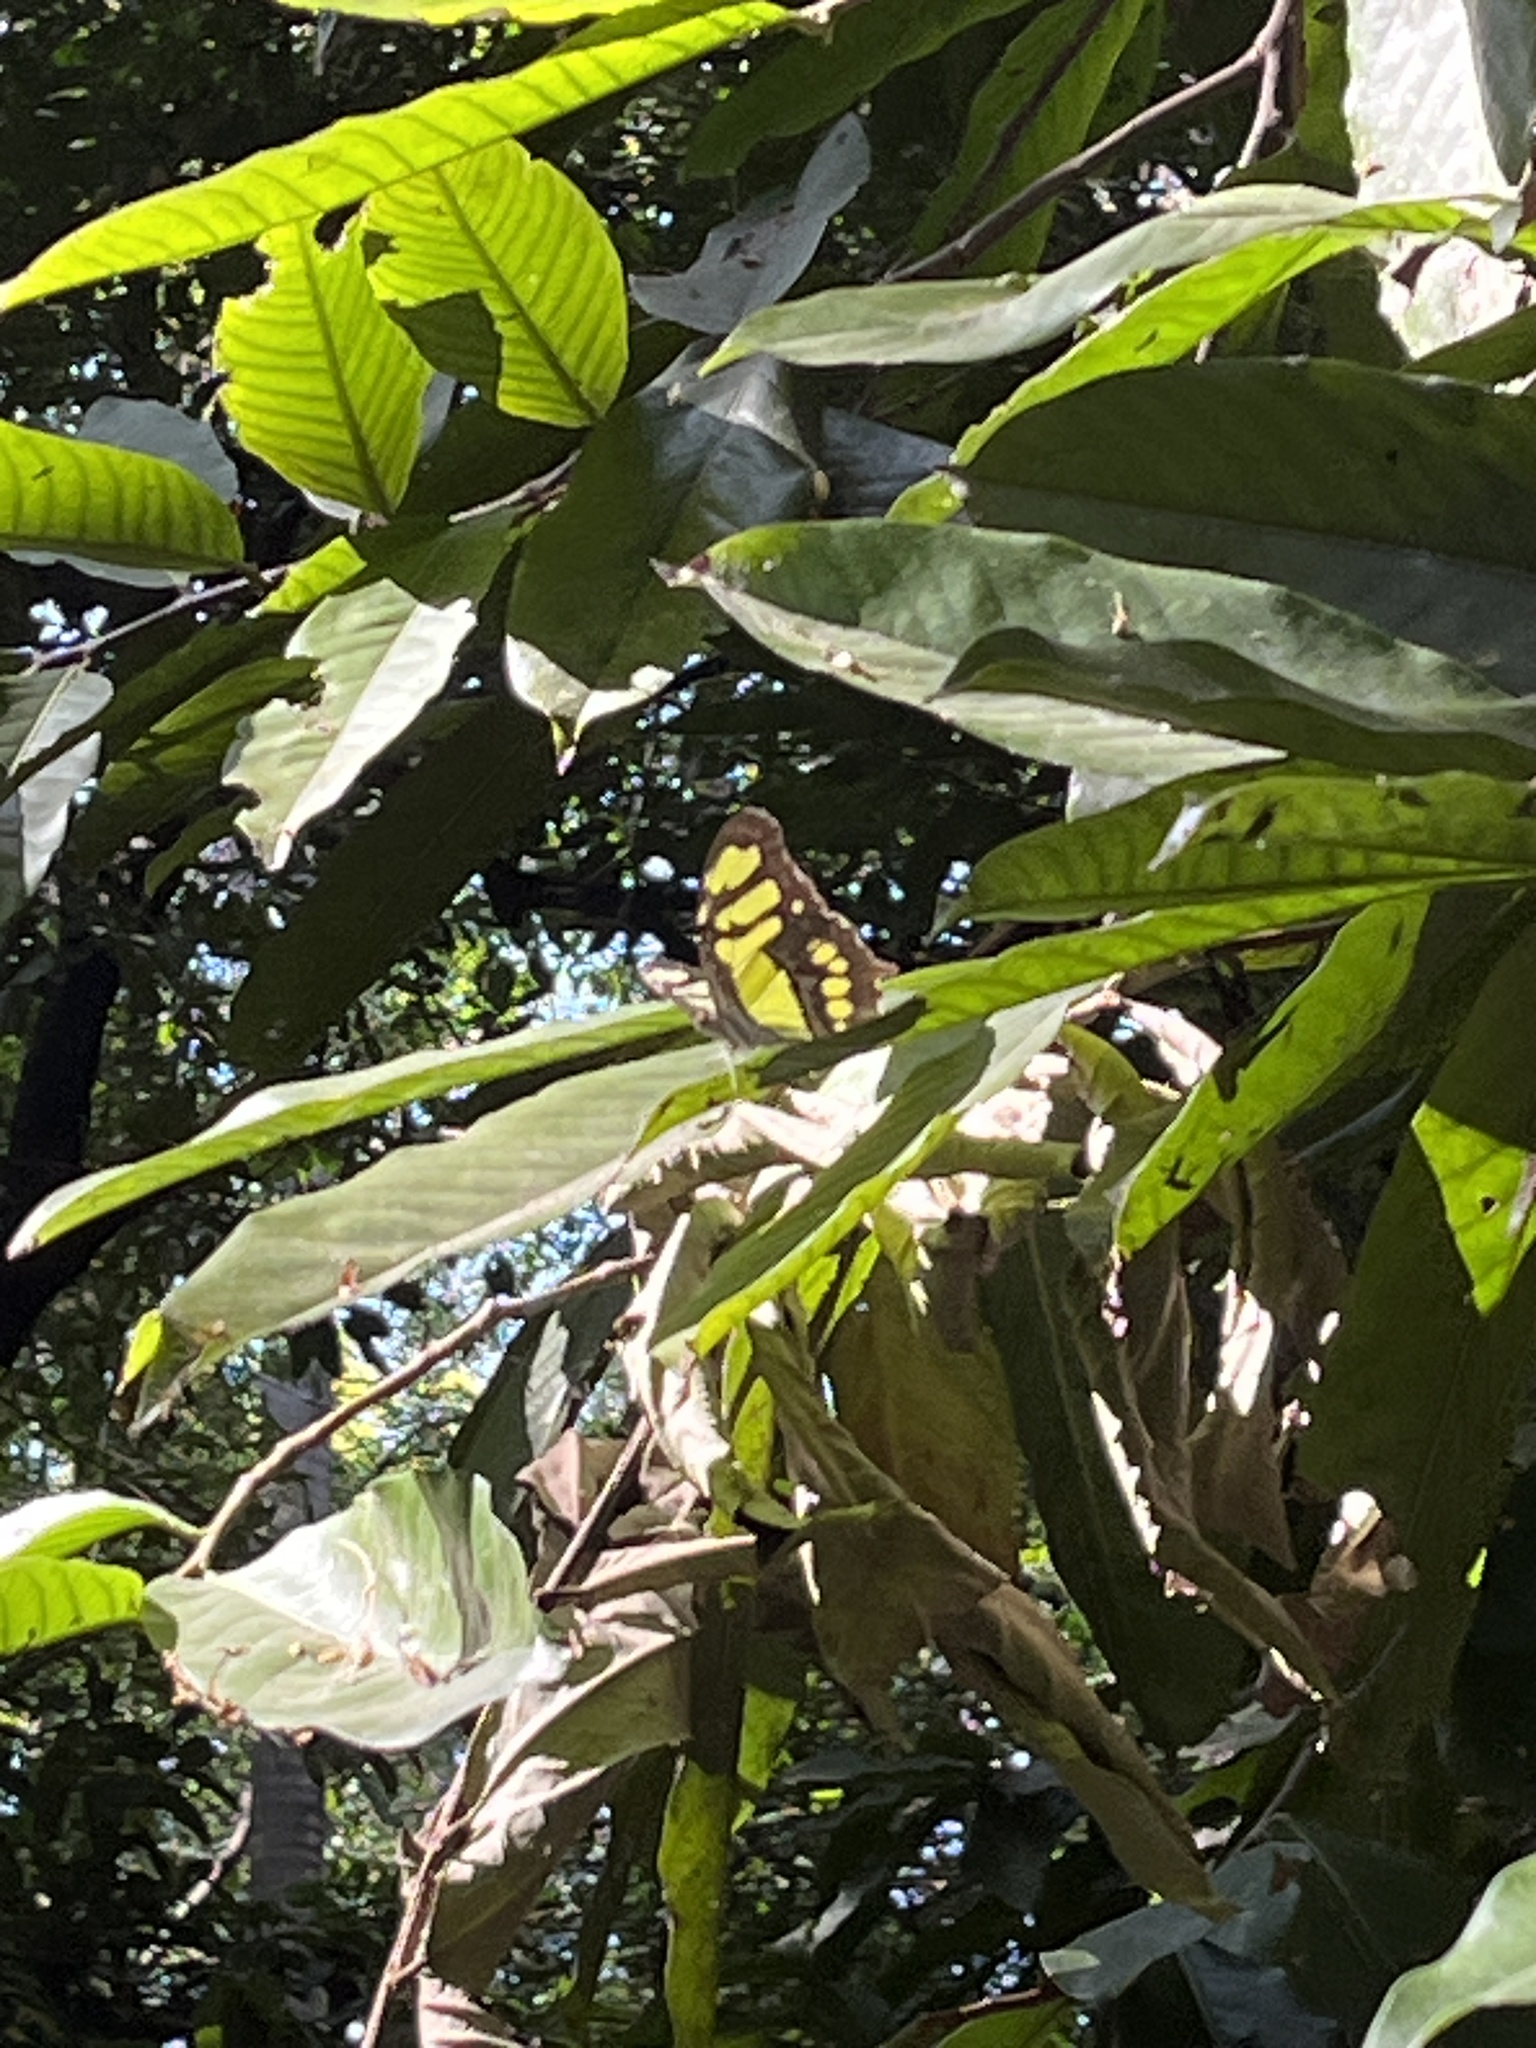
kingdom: Animalia
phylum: Arthropoda
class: Insecta
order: Lepidoptera
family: Nymphalidae
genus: Siproeta
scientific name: Siproeta stelenes
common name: Malachite
